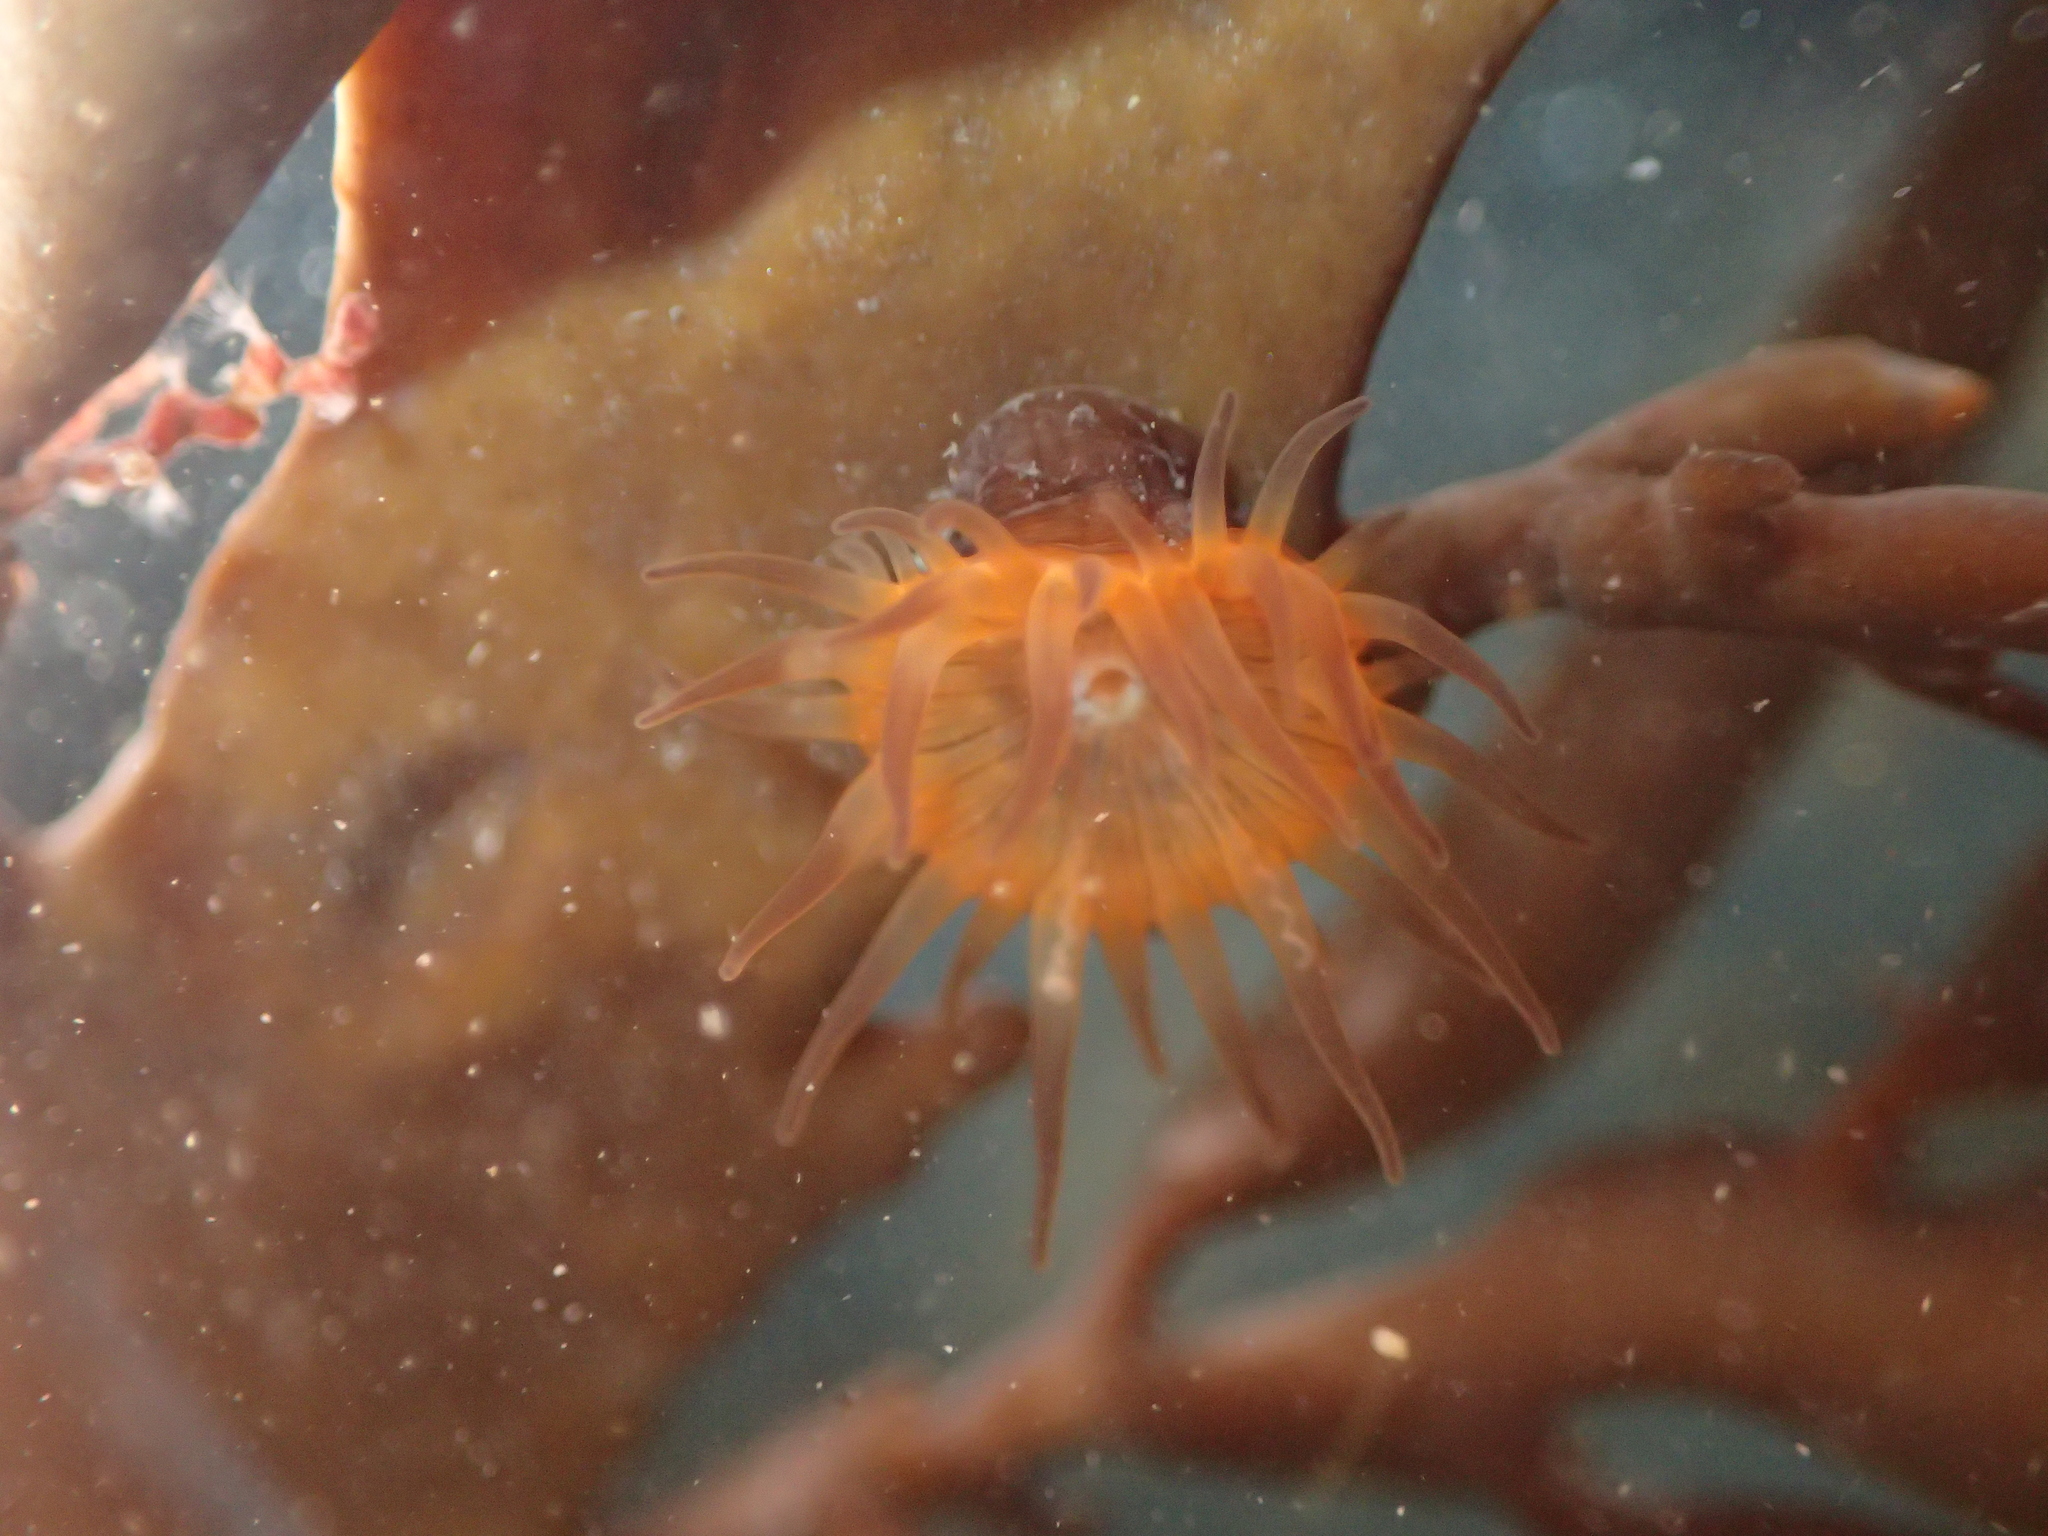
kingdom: Animalia
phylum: Cnidaria
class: Anthozoa
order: Actiniaria
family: Hormathiidae
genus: Handactis
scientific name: Handactis nutrix
